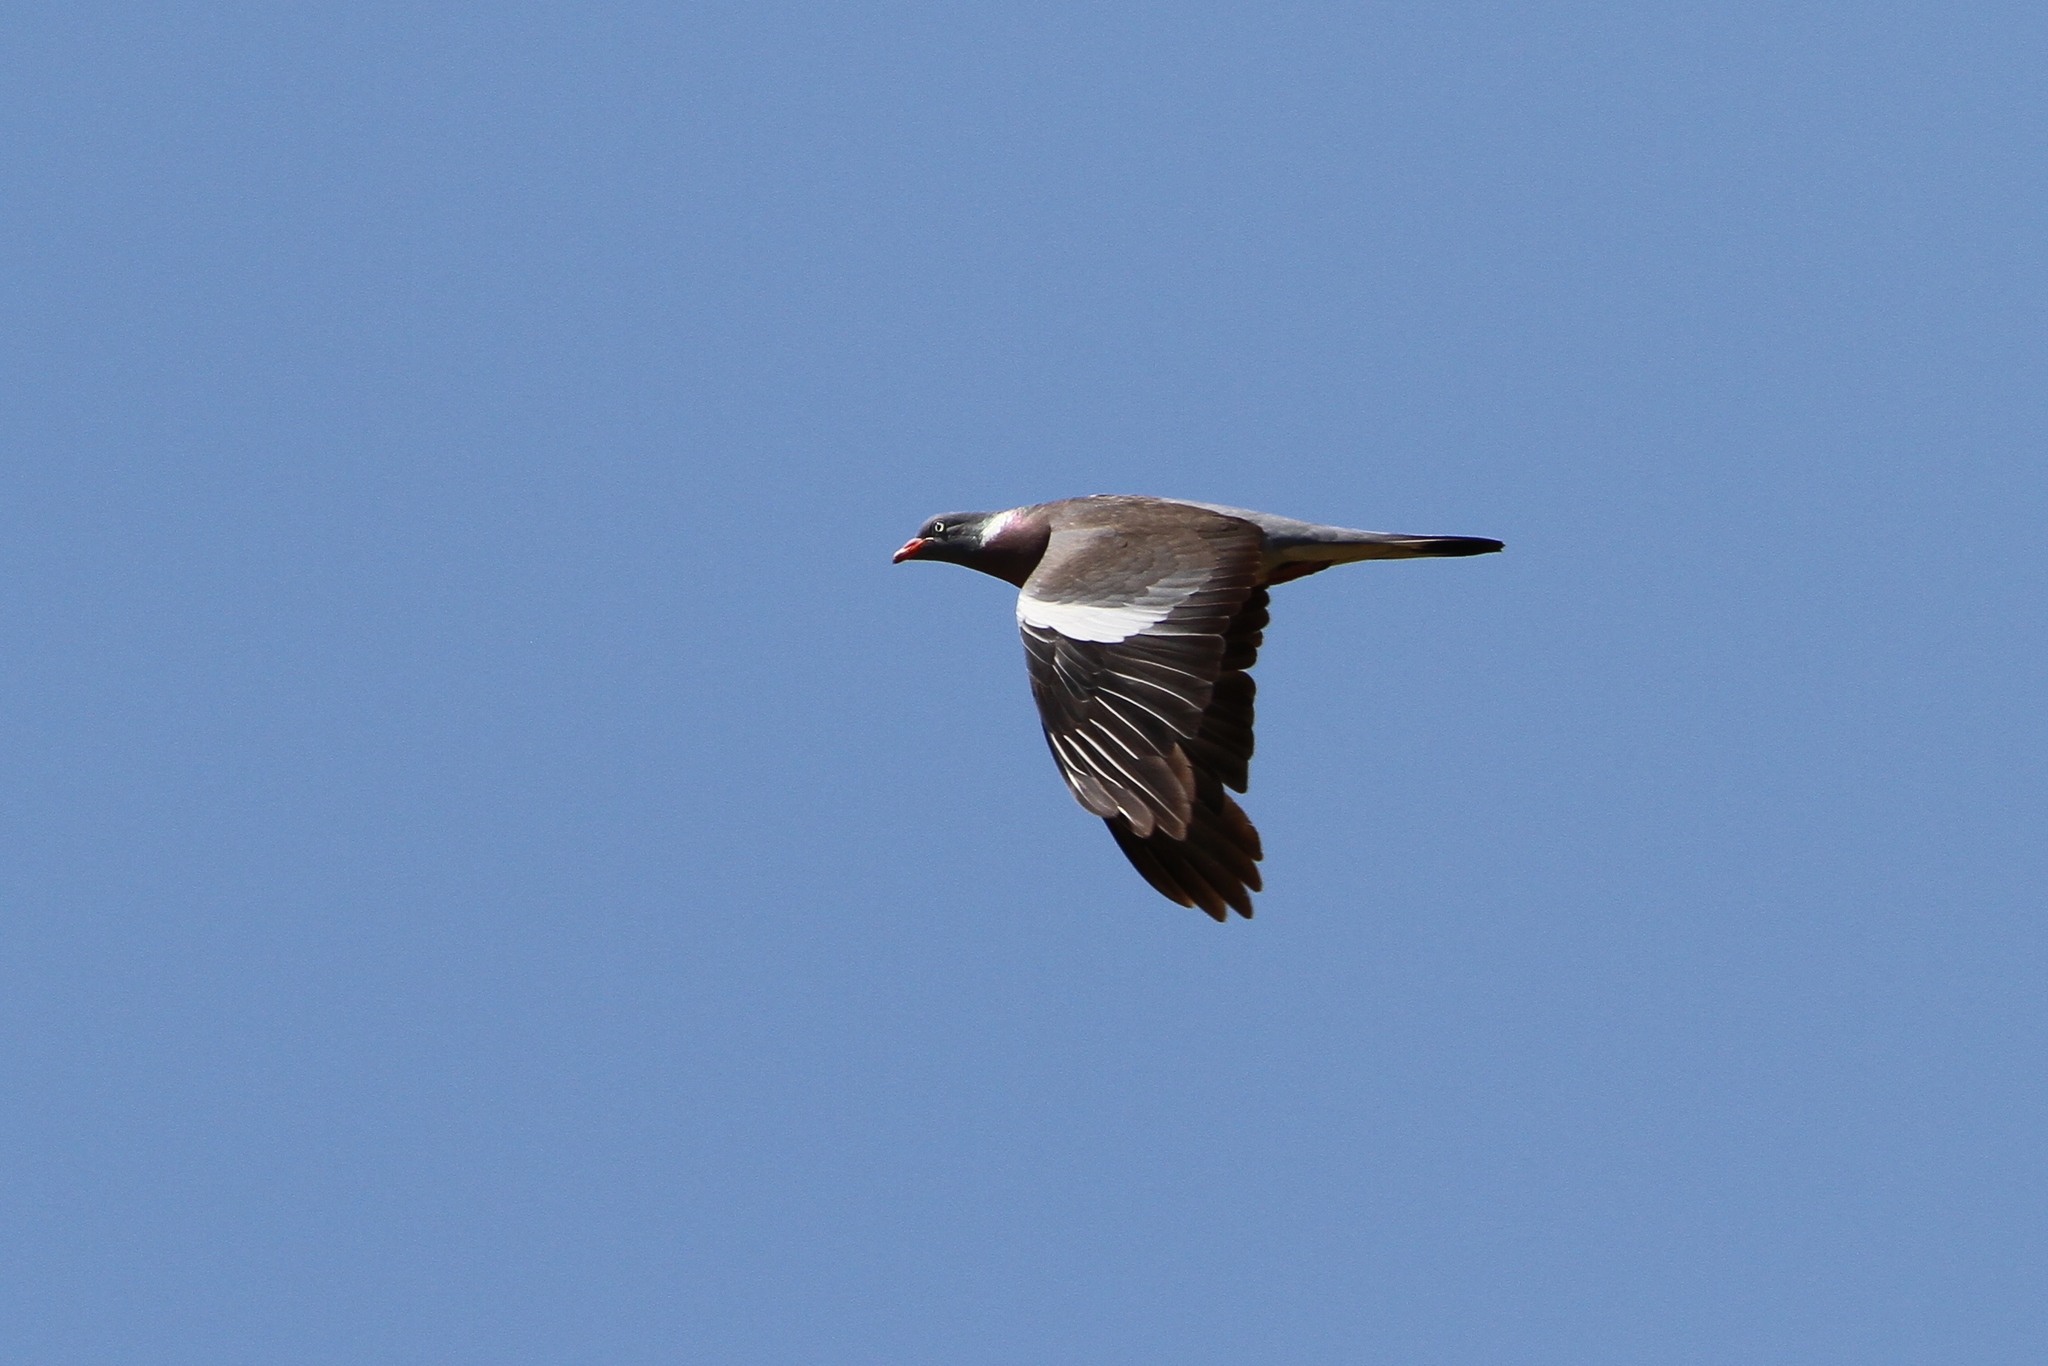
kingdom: Animalia
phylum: Chordata
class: Aves
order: Columbiformes
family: Columbidae
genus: Columba
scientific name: Columba palumbus
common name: Common wood pigeon
